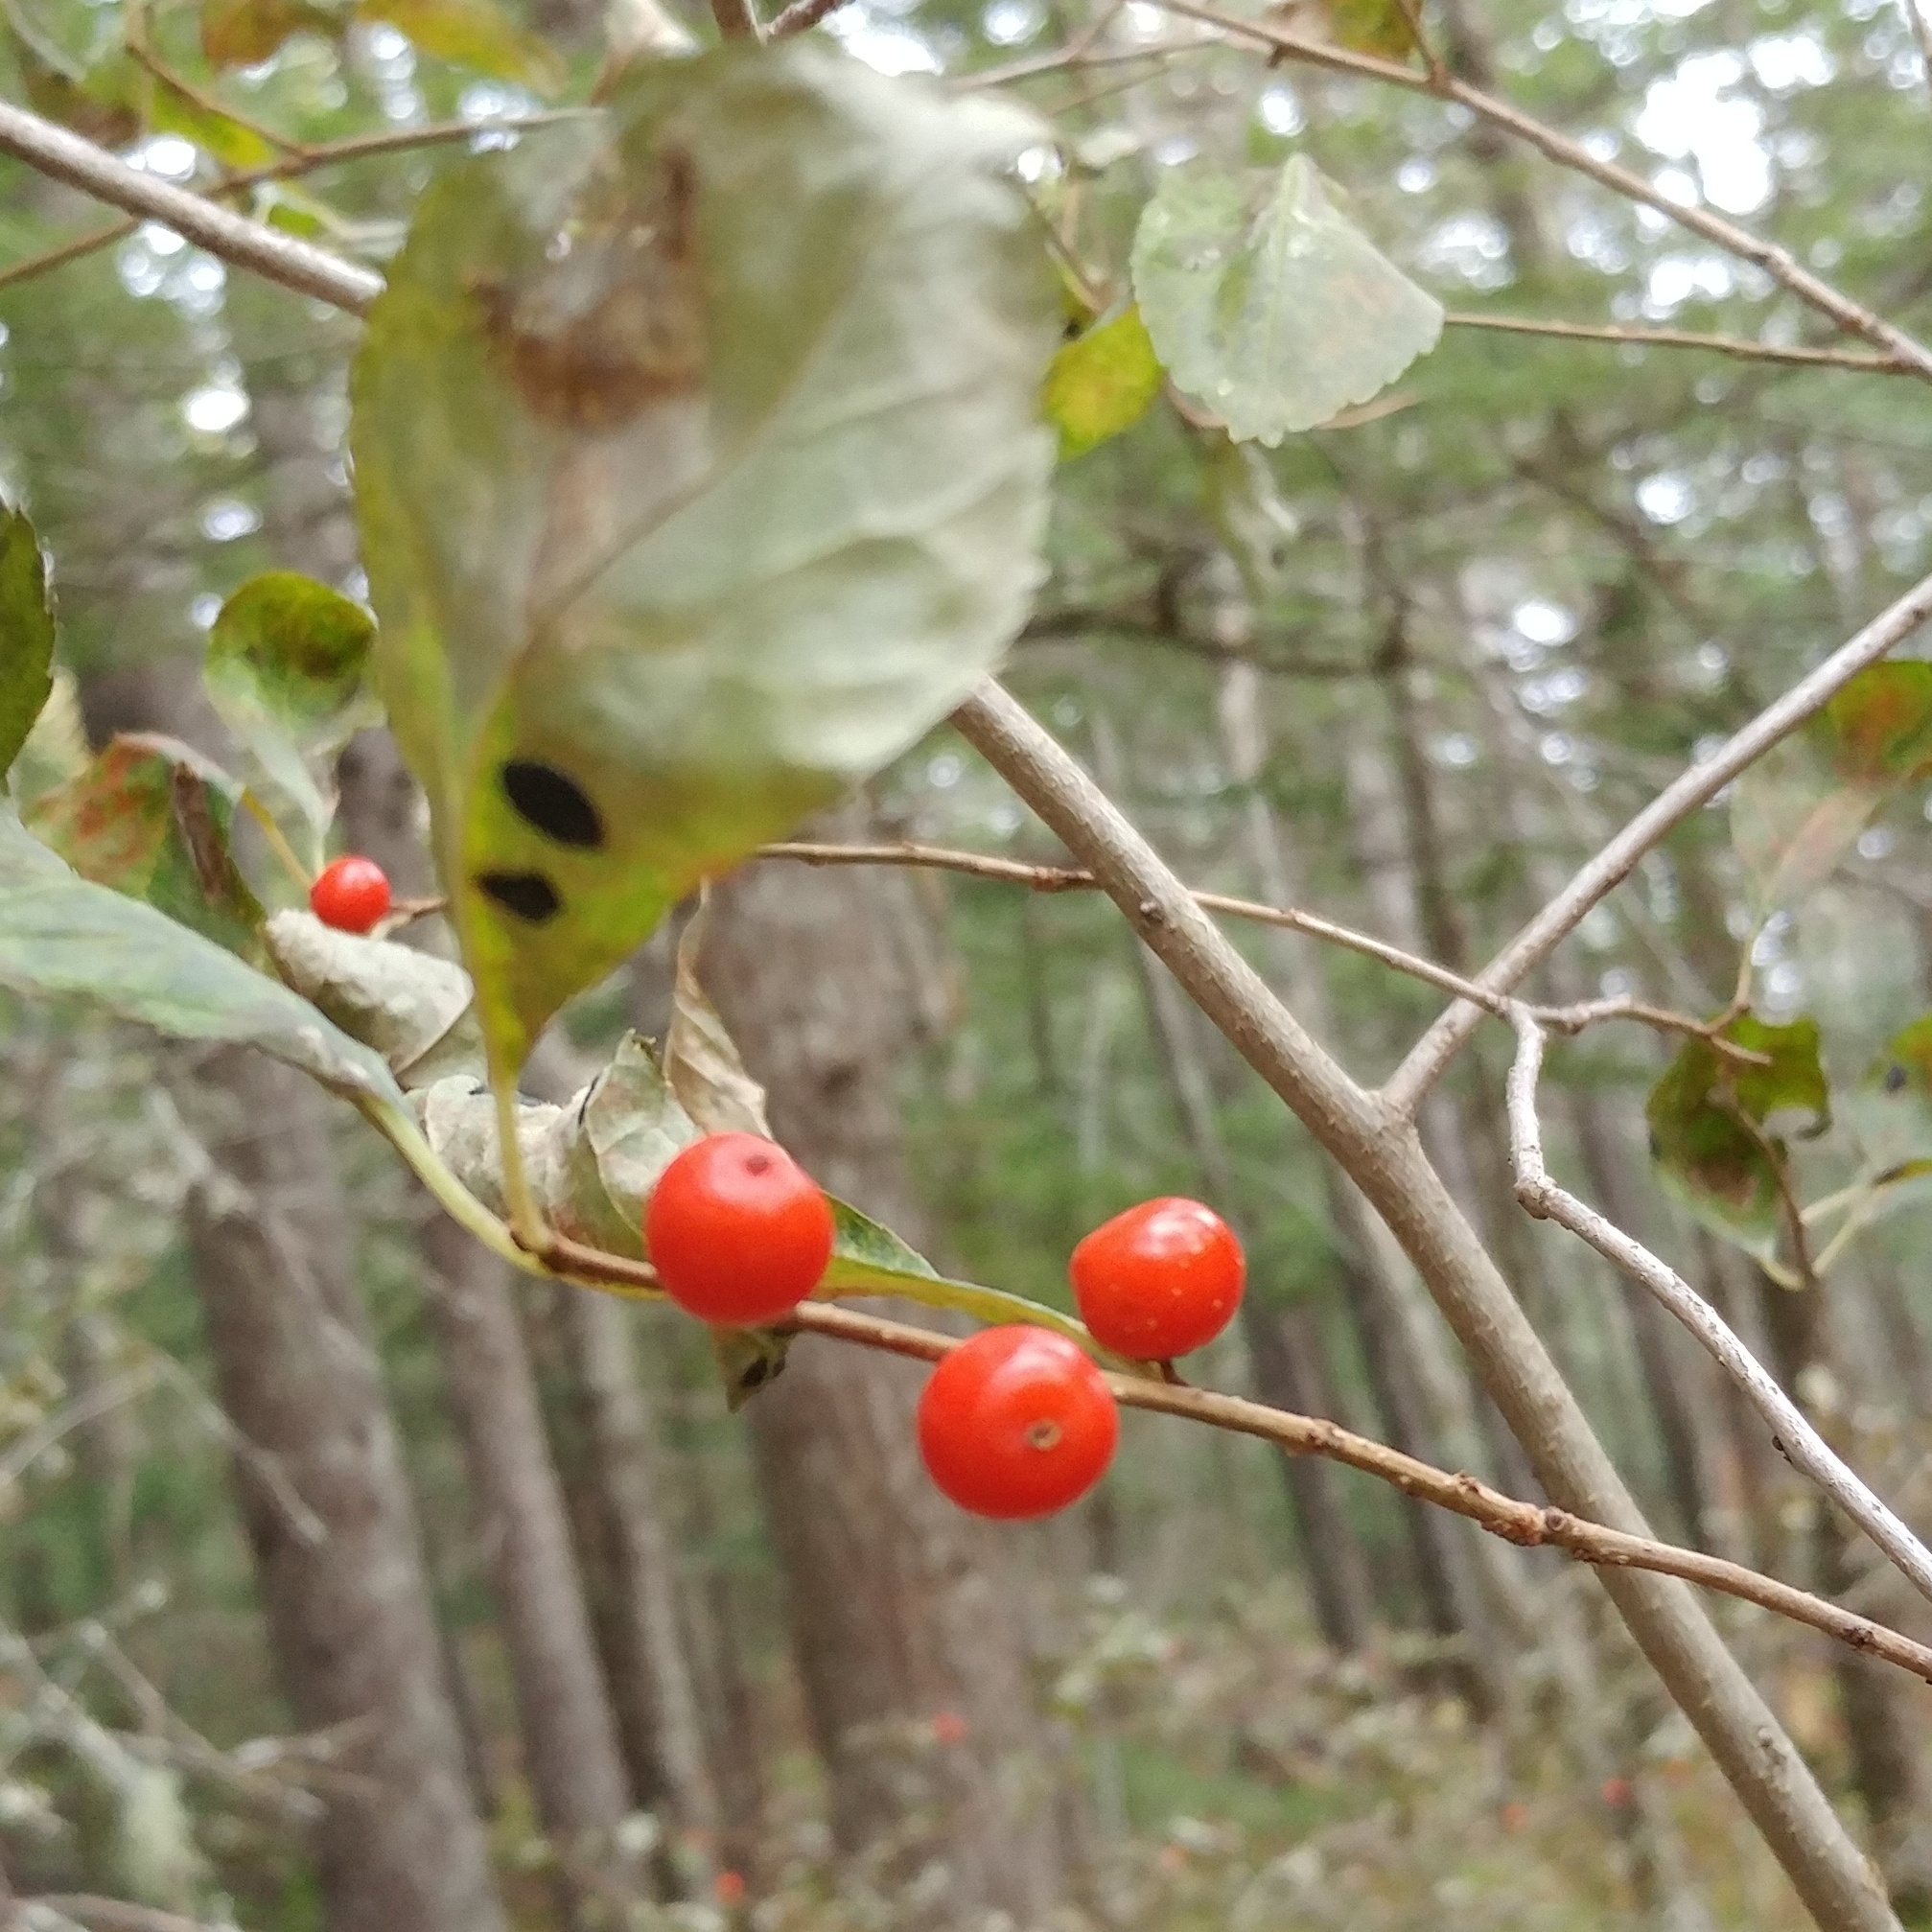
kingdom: Plantae
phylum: Tracheophyta
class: Magnoliopsida
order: Aquifoliales
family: Aquifoliaceae
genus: Ilex
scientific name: Ilex verticillata
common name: Virginia winterberry
